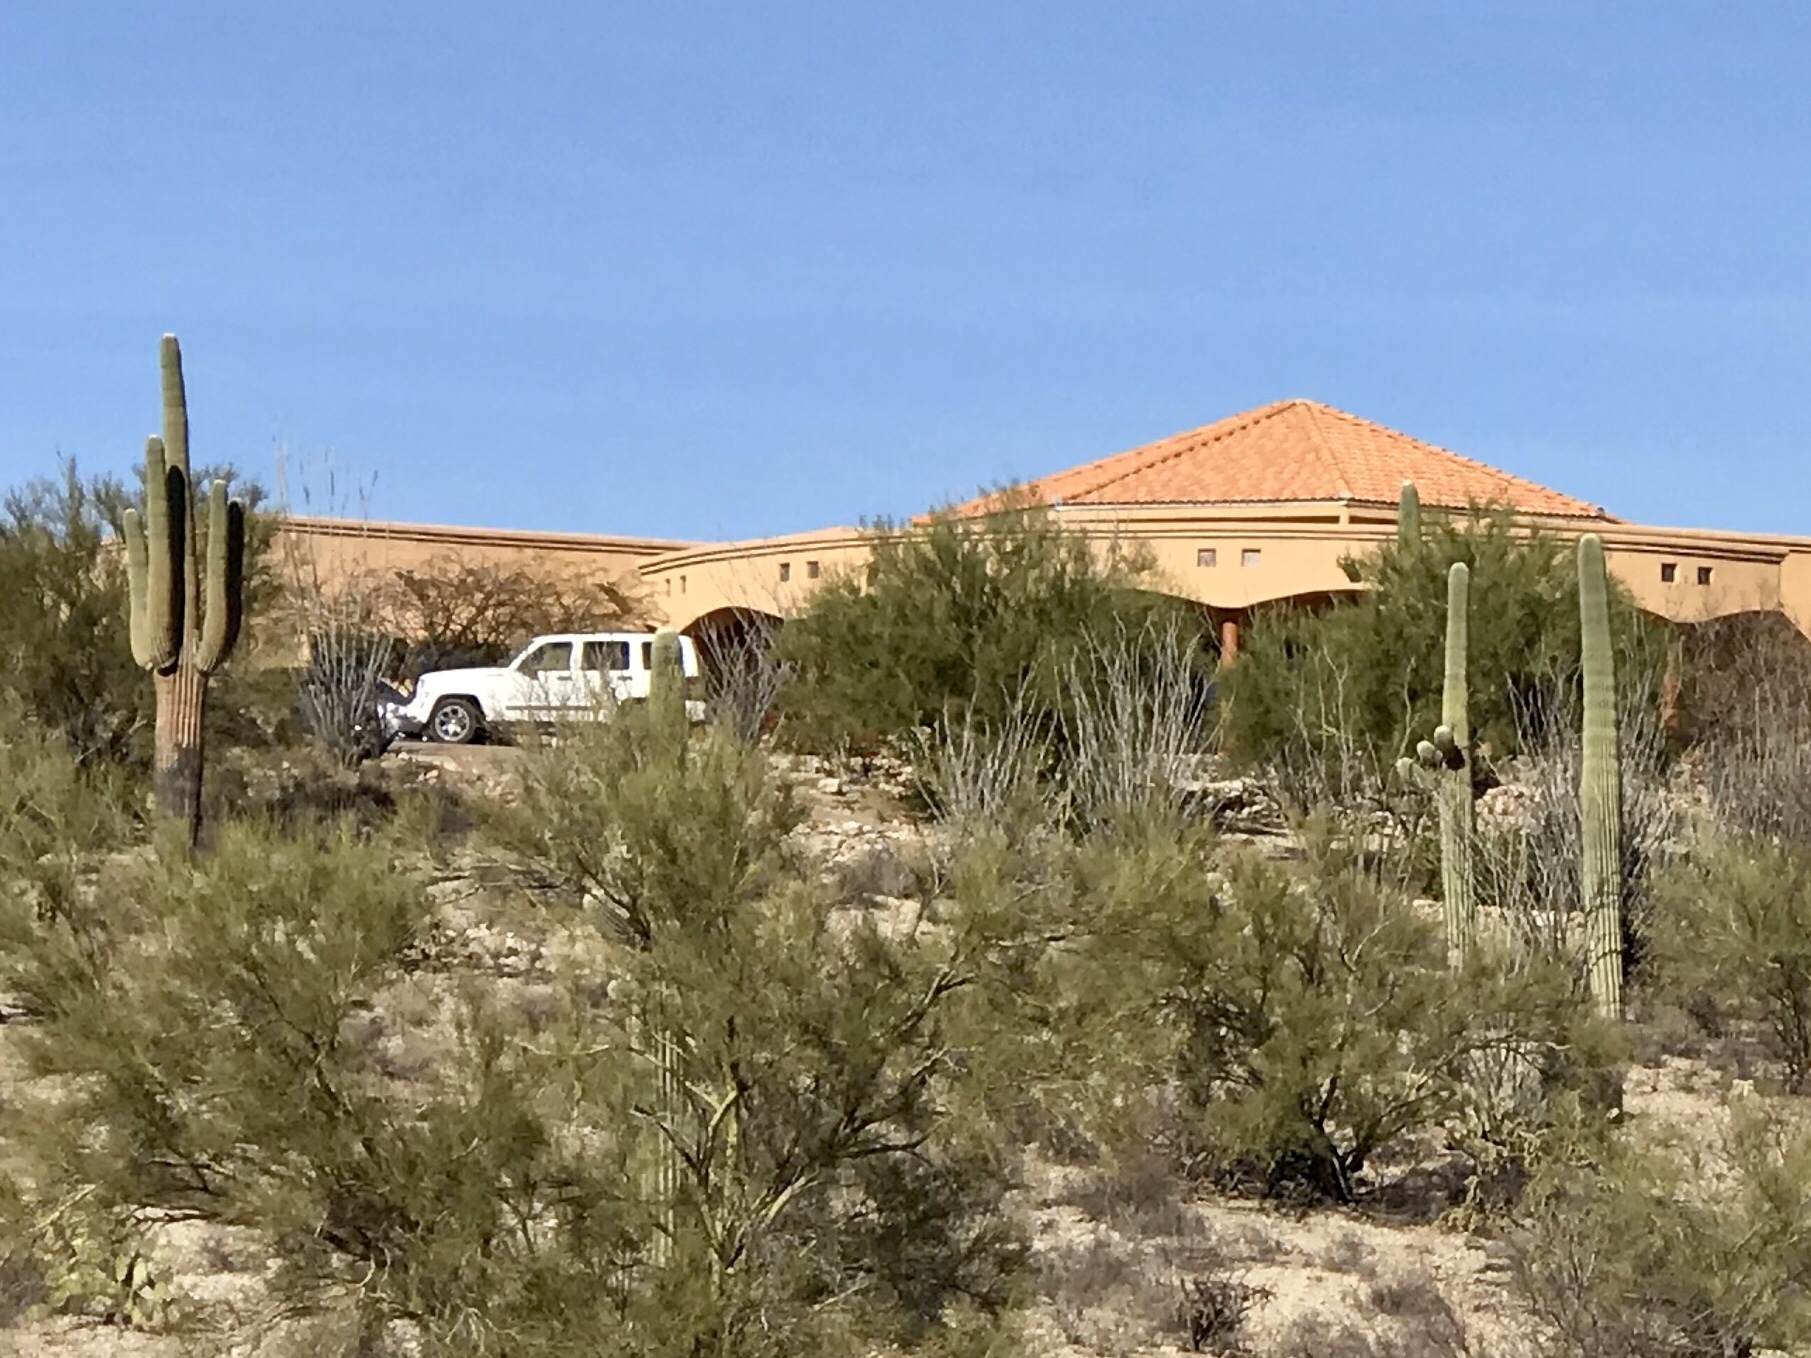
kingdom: Plantae
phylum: Tracheophyta
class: Magnoliopsida
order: Caryophyllales
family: Cactaceae
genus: Carnegiea
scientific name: Carnegiea gigantea
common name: Saguaro
